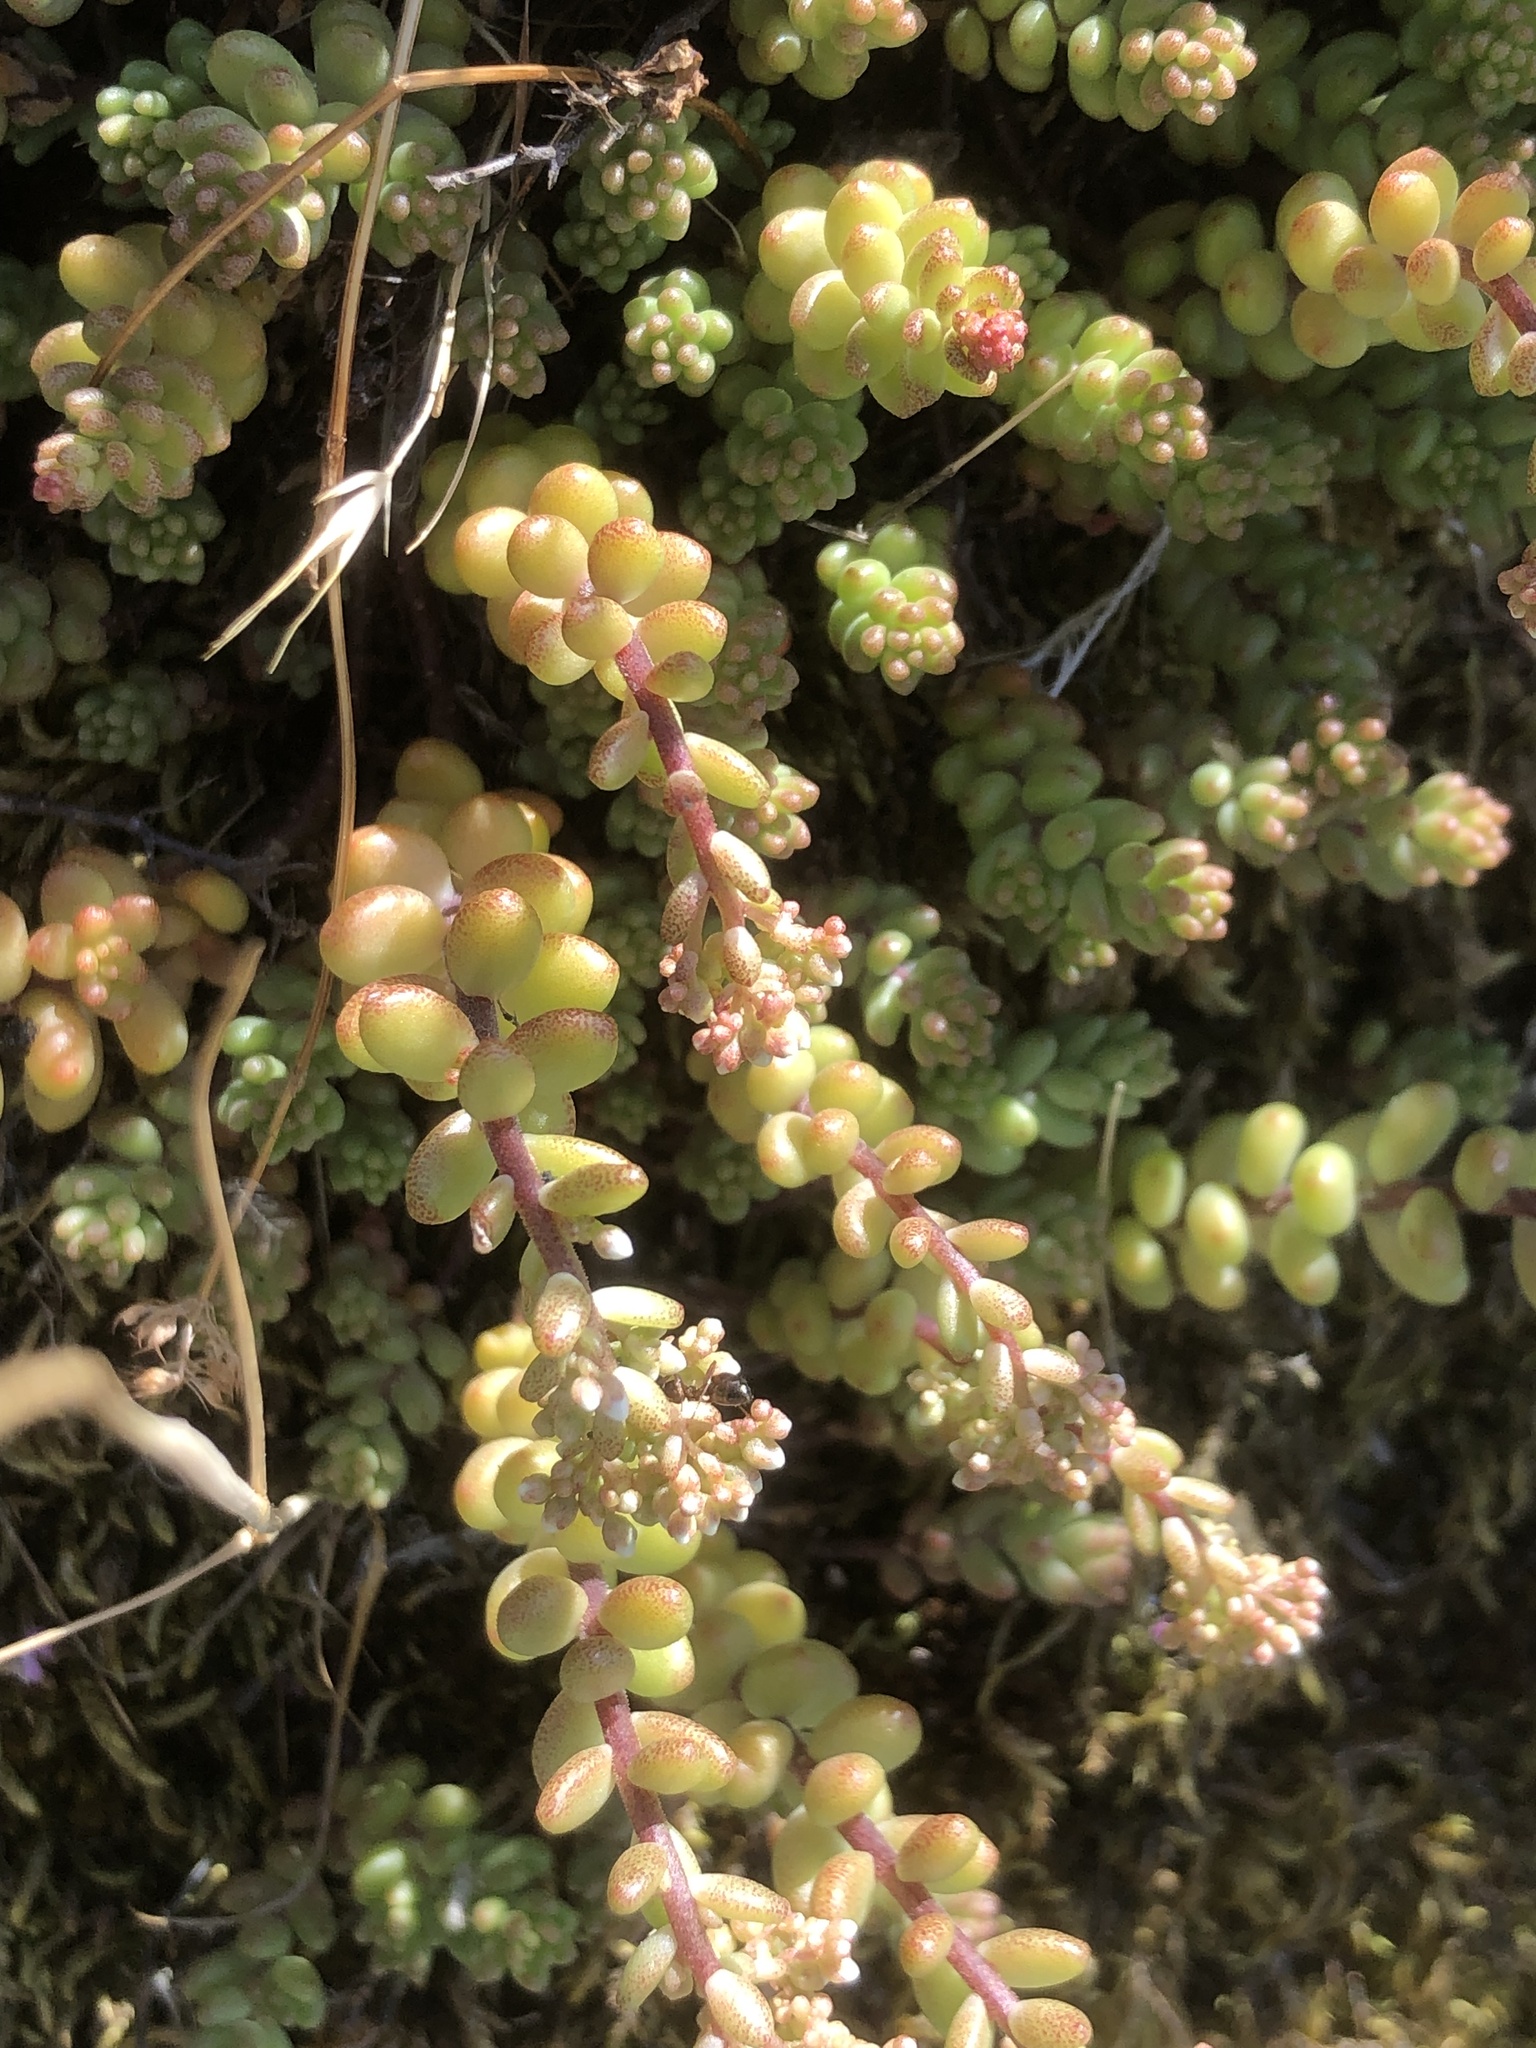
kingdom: Plantae
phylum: Tracheophyta
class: Magnoliopsida
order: Saxifragales
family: Crassulaceae
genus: Sedum
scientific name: Sedum album
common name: White stonecrop
